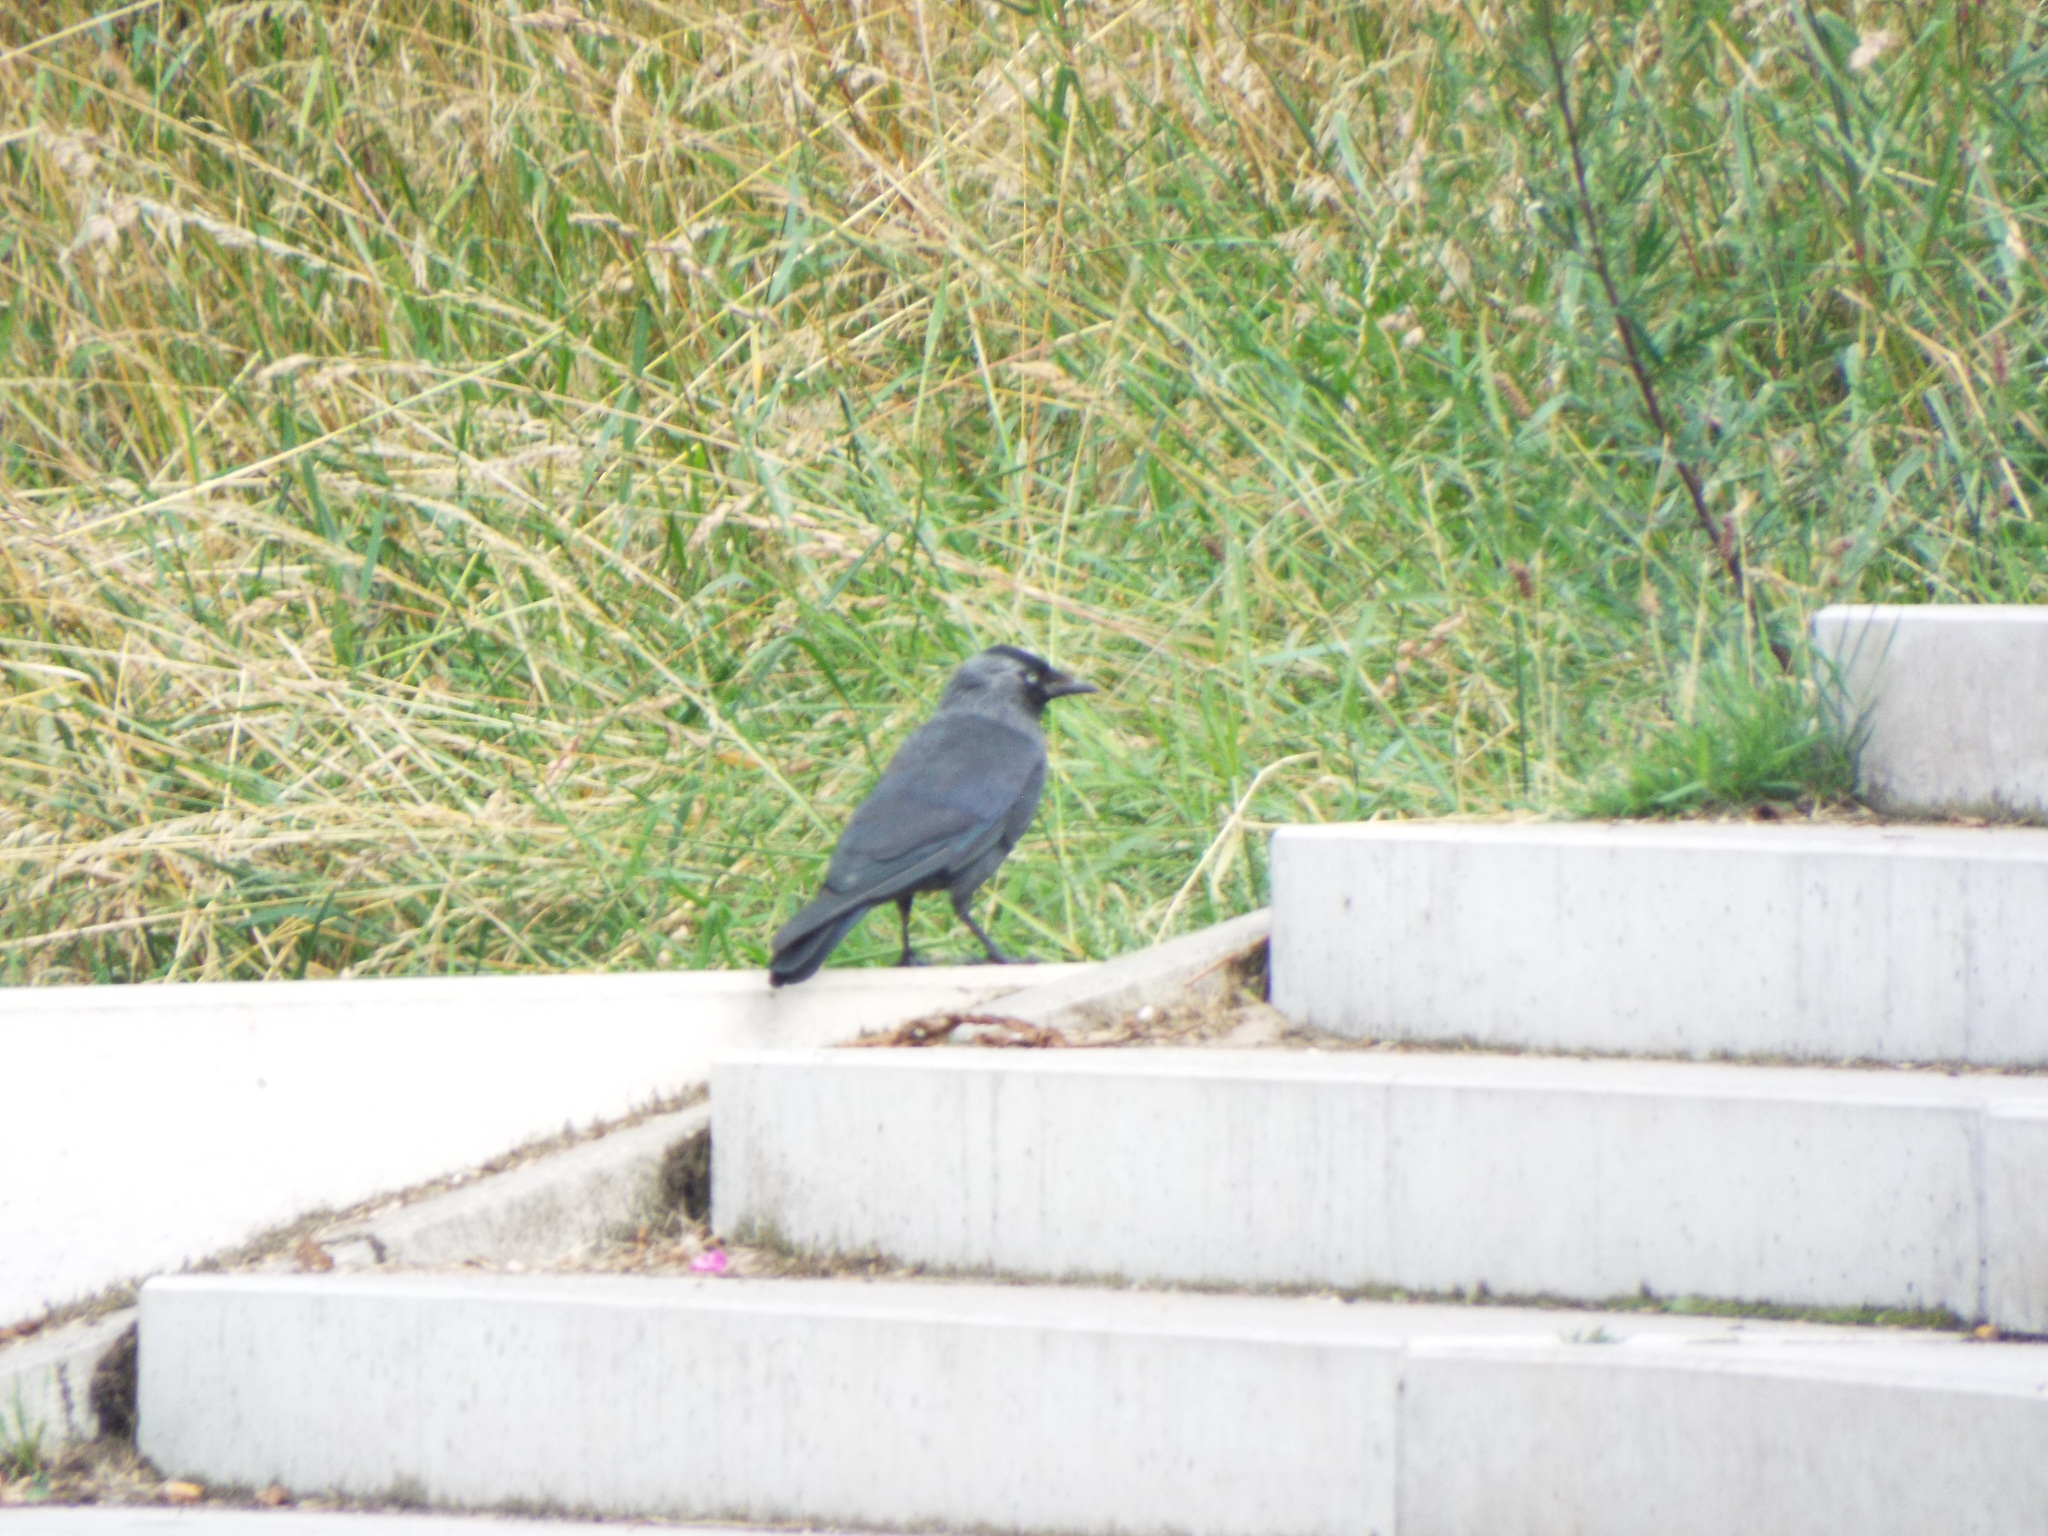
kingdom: Animalia
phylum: Chordata
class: Aves
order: Passeriformes
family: Corvidae
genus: Coloeus
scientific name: Coloeus monedula
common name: Western jackdaw
